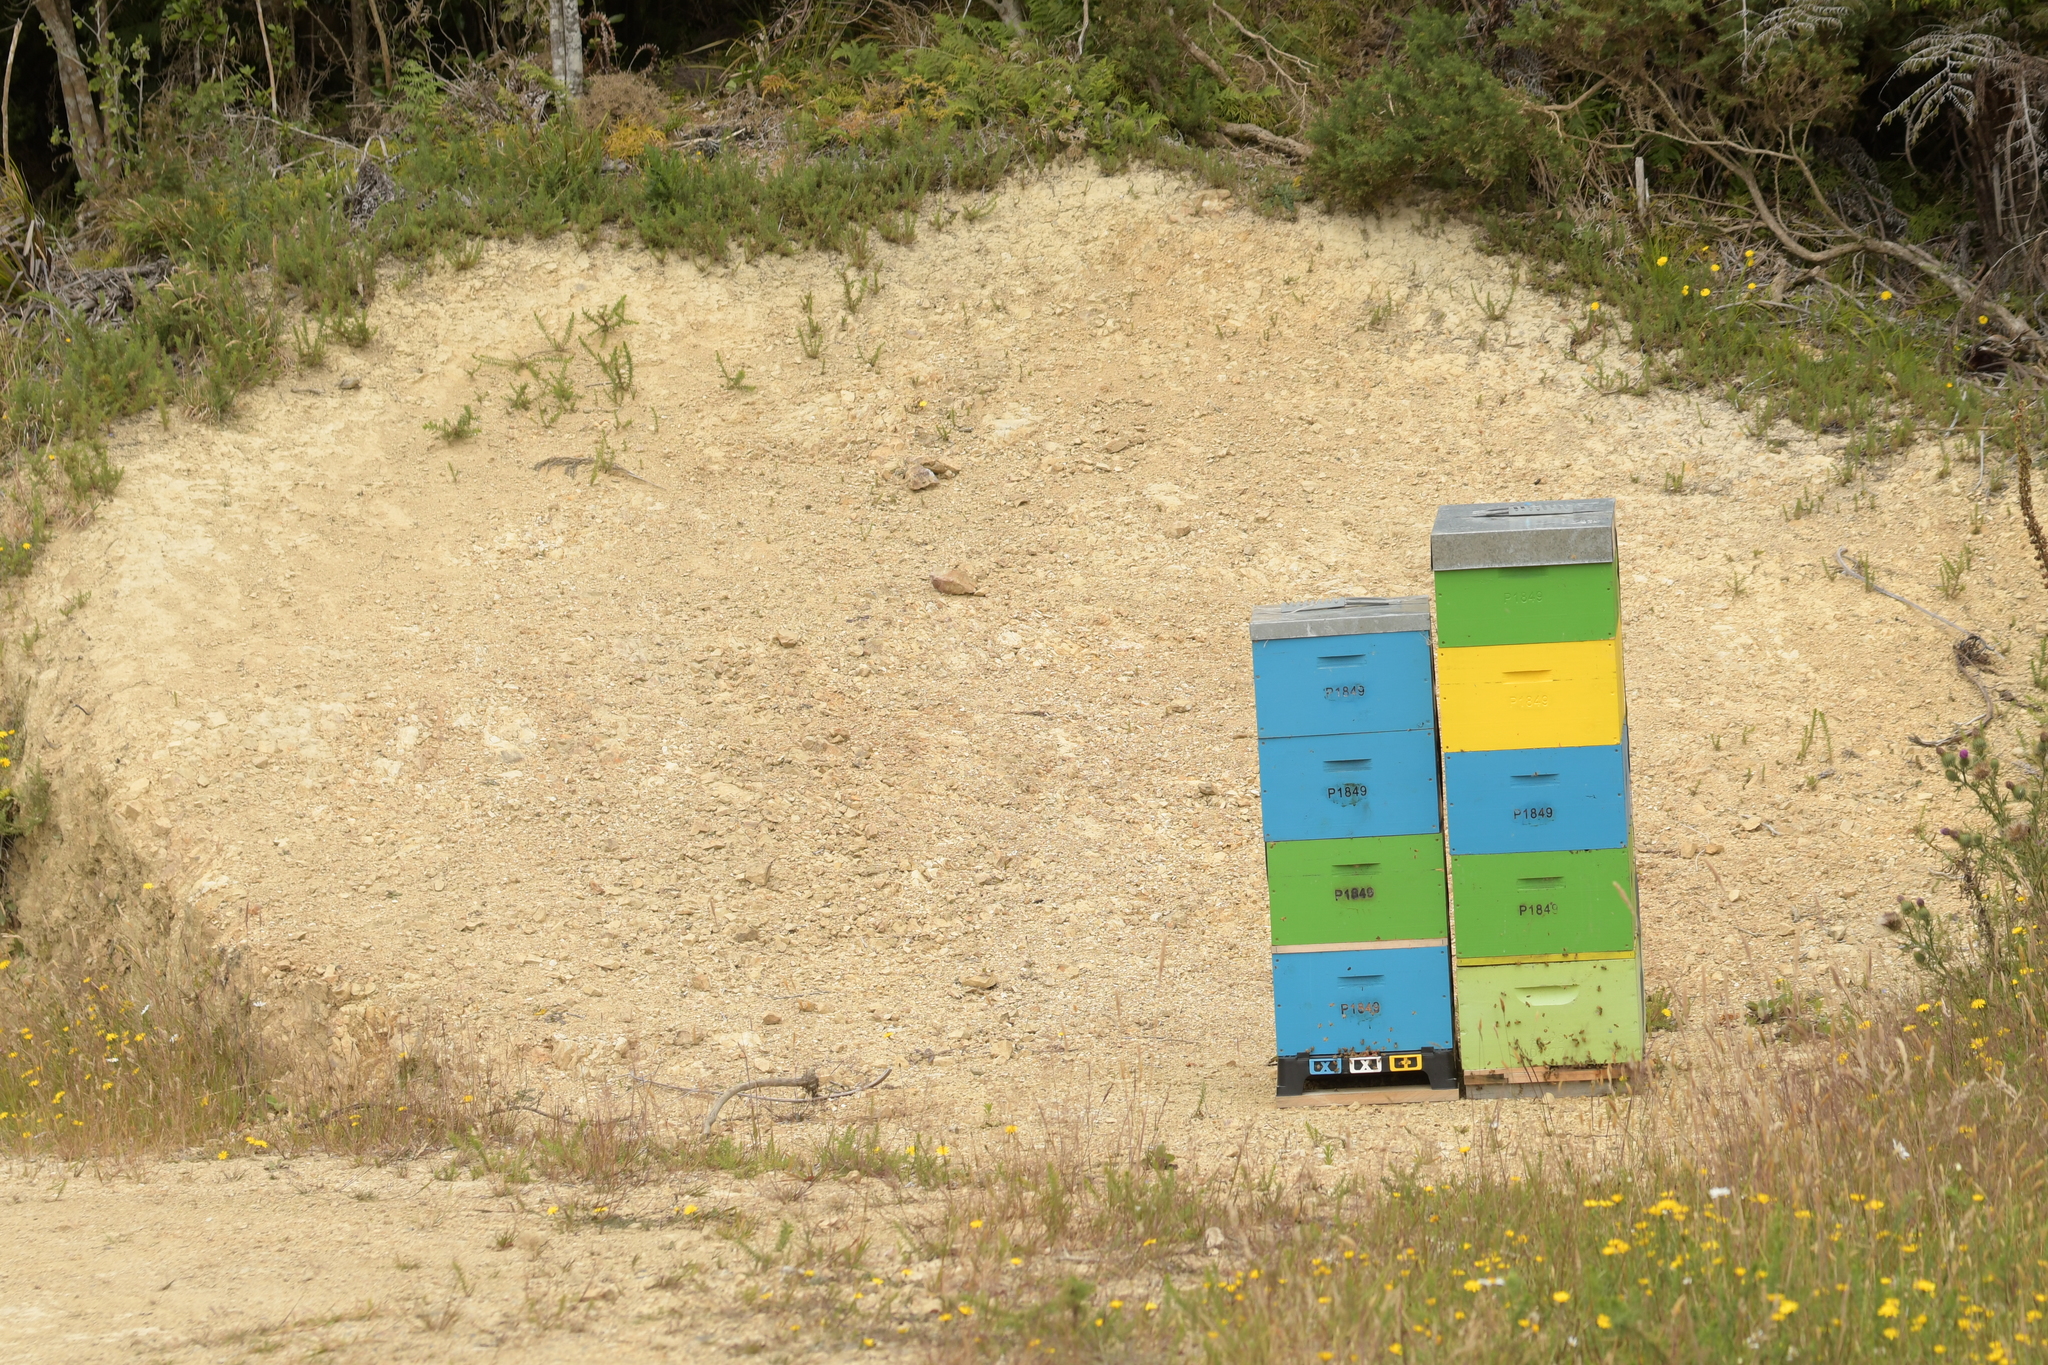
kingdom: Animalia
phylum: Arthropoda
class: Insecta
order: Hymenoptera
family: Apidae
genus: Apis
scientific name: Apis mellifera
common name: Honey bee
